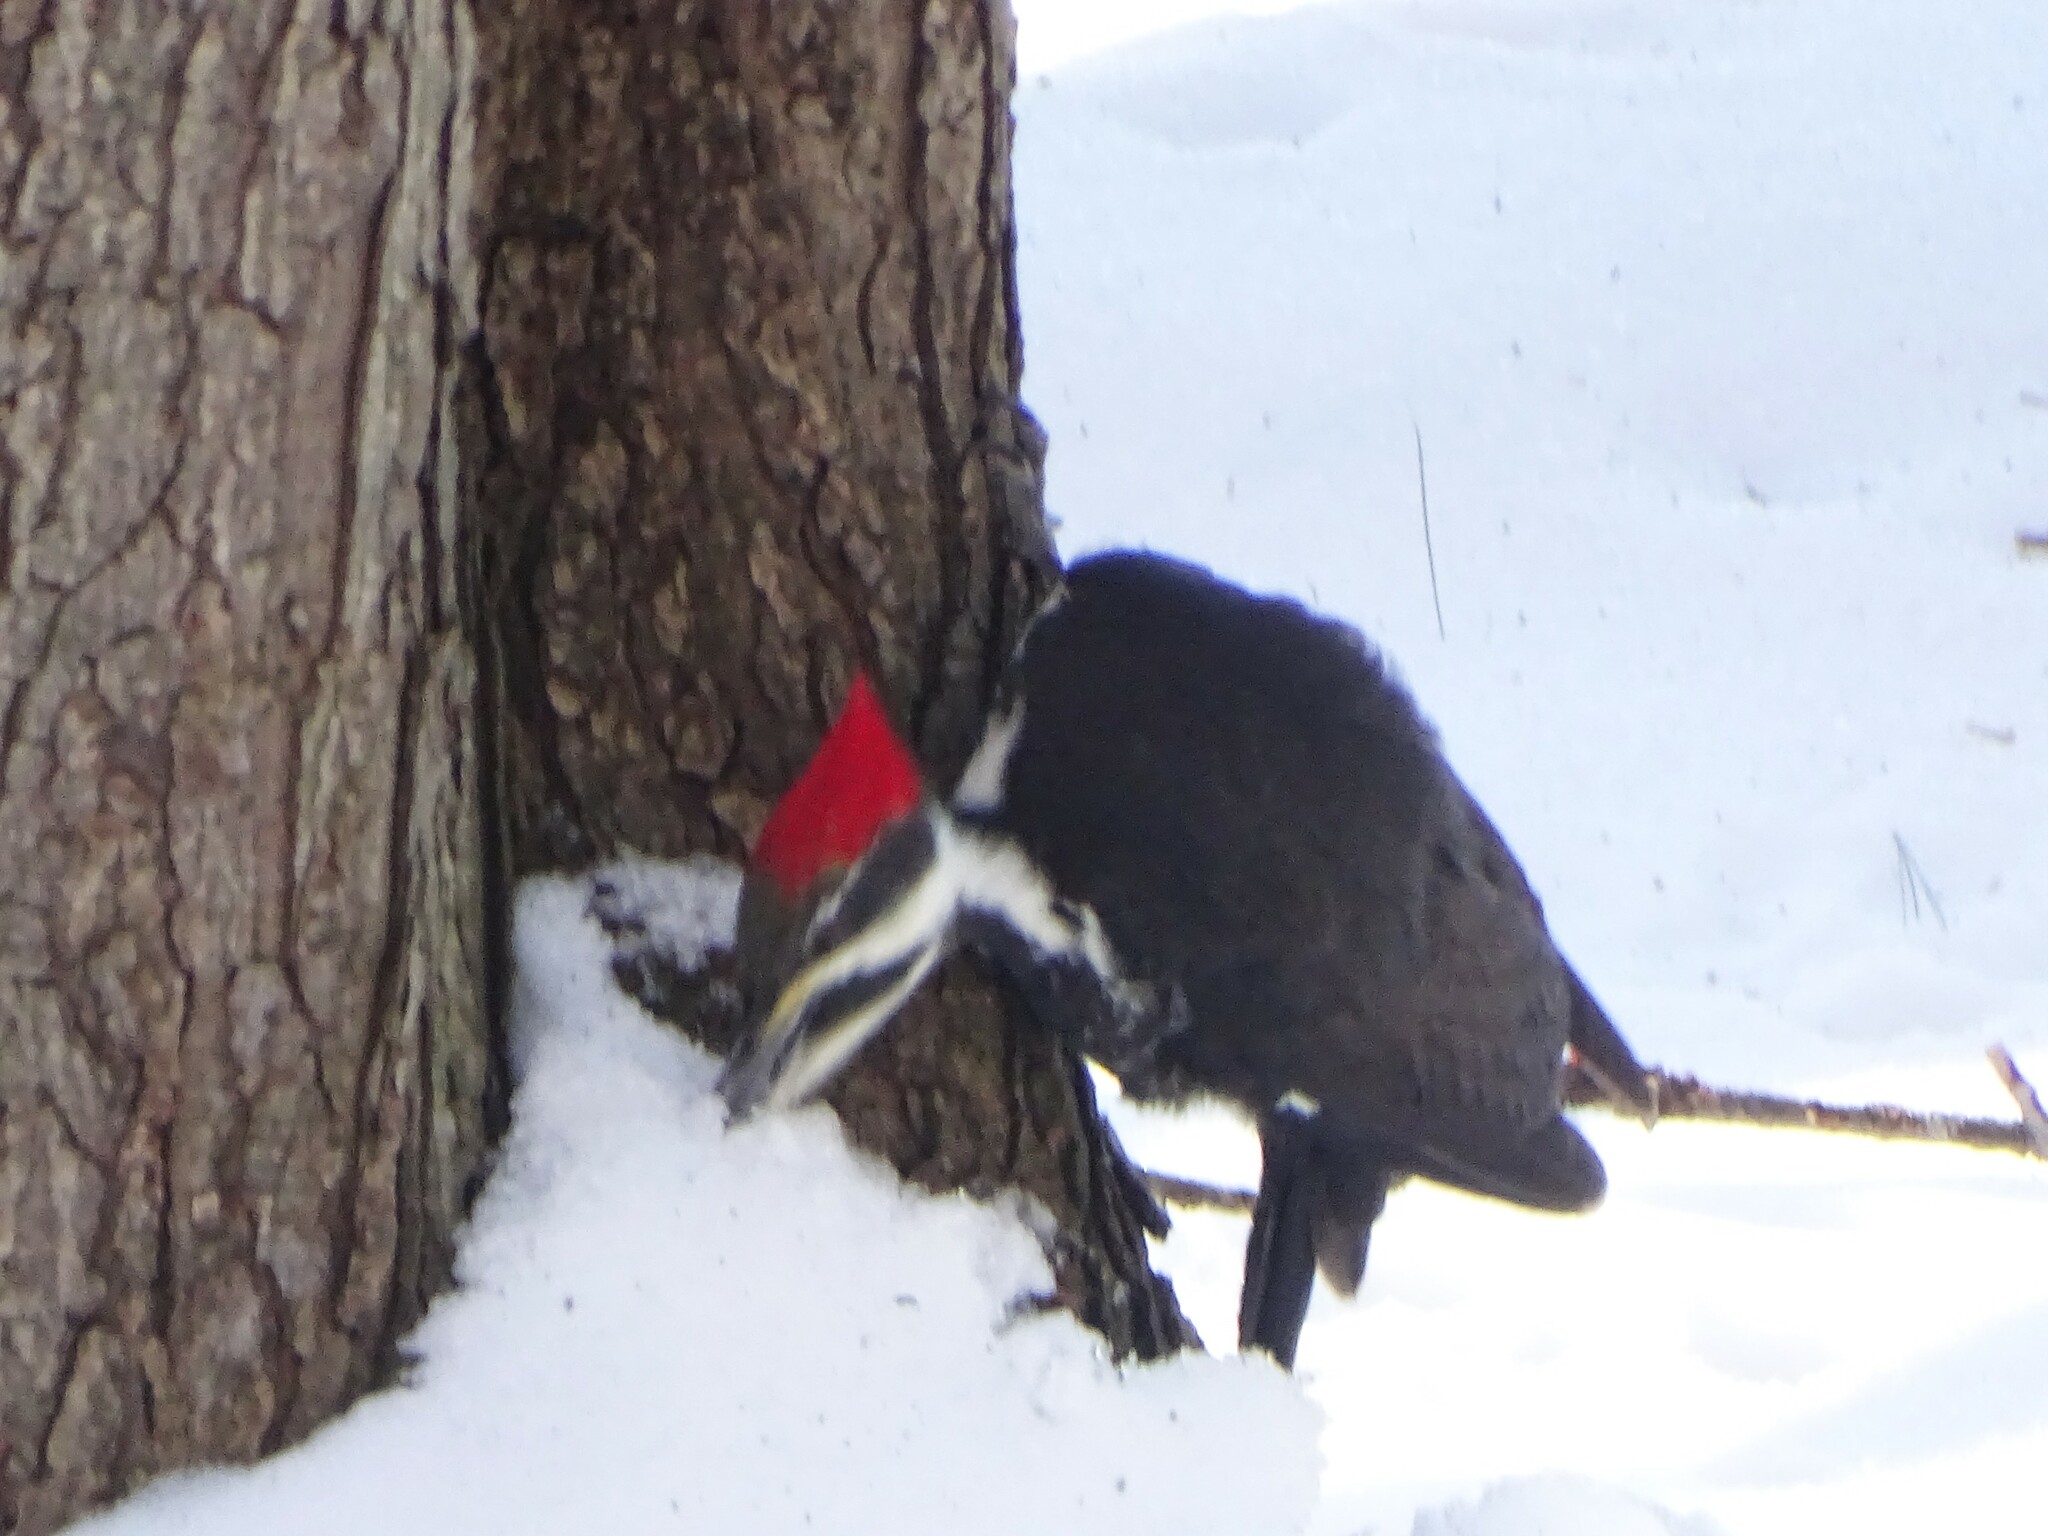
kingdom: Animalia
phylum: Chordata
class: Aves
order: Piciformes
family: Picidae
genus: Dryocopus
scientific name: Dryocopus pileatus
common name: Pileated woodpecker
